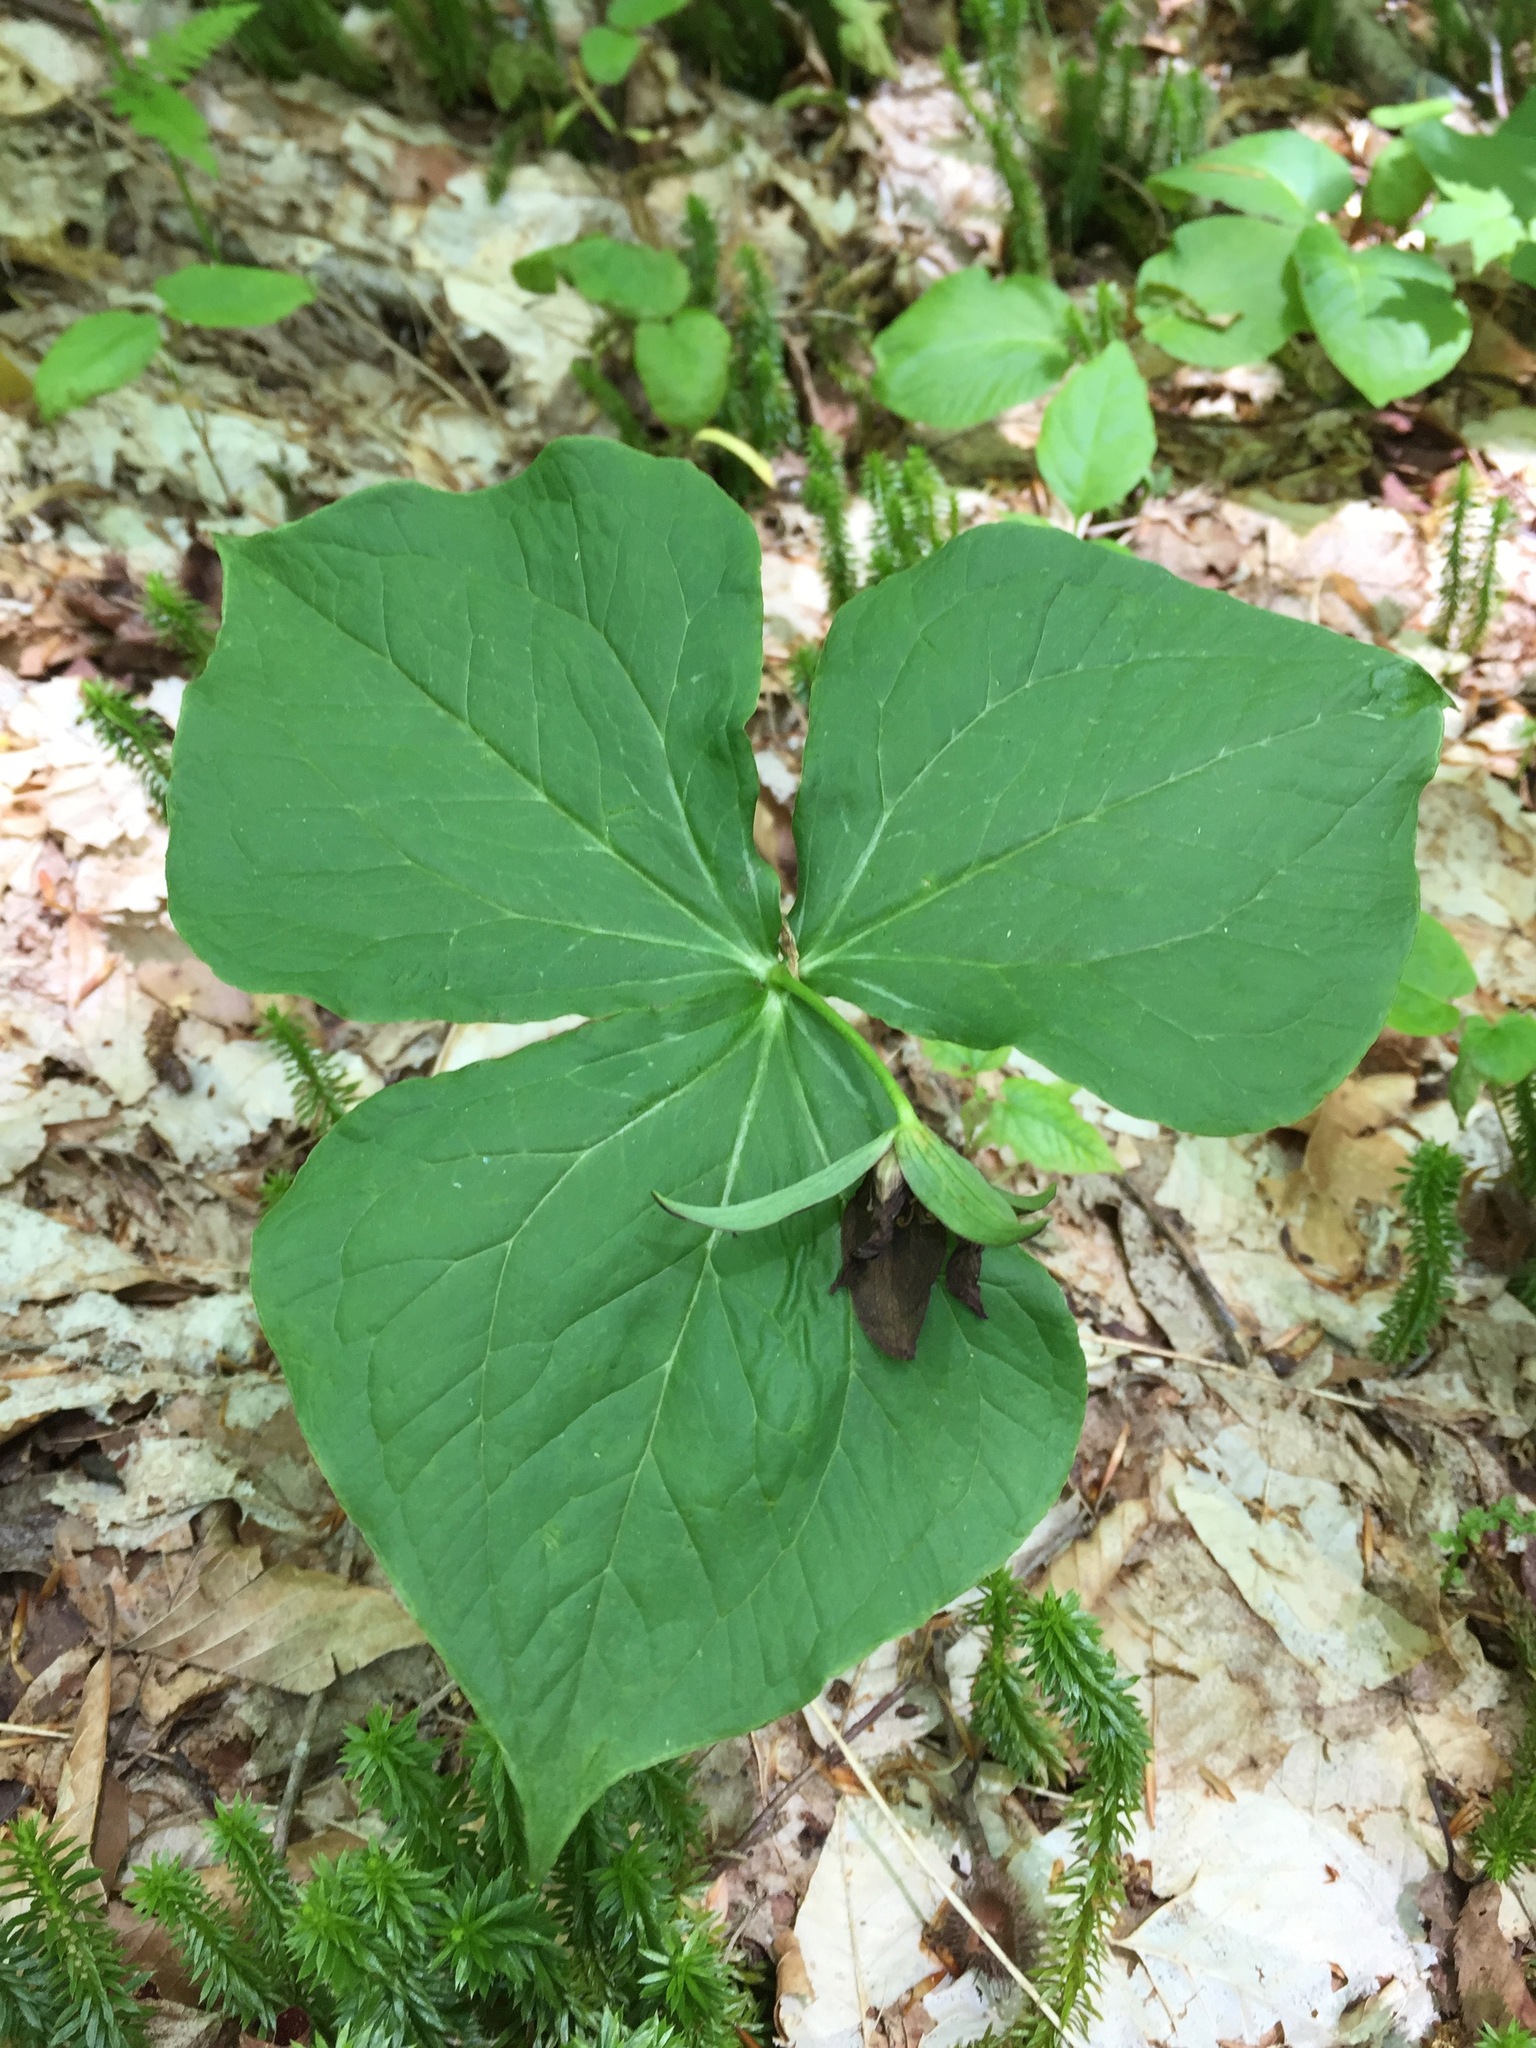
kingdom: Plantae
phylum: Tracheophyta
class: Liliopsida
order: Liliales
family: Melanthiaceae
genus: Trillium
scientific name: Trillium erectum
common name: Purple trillium
